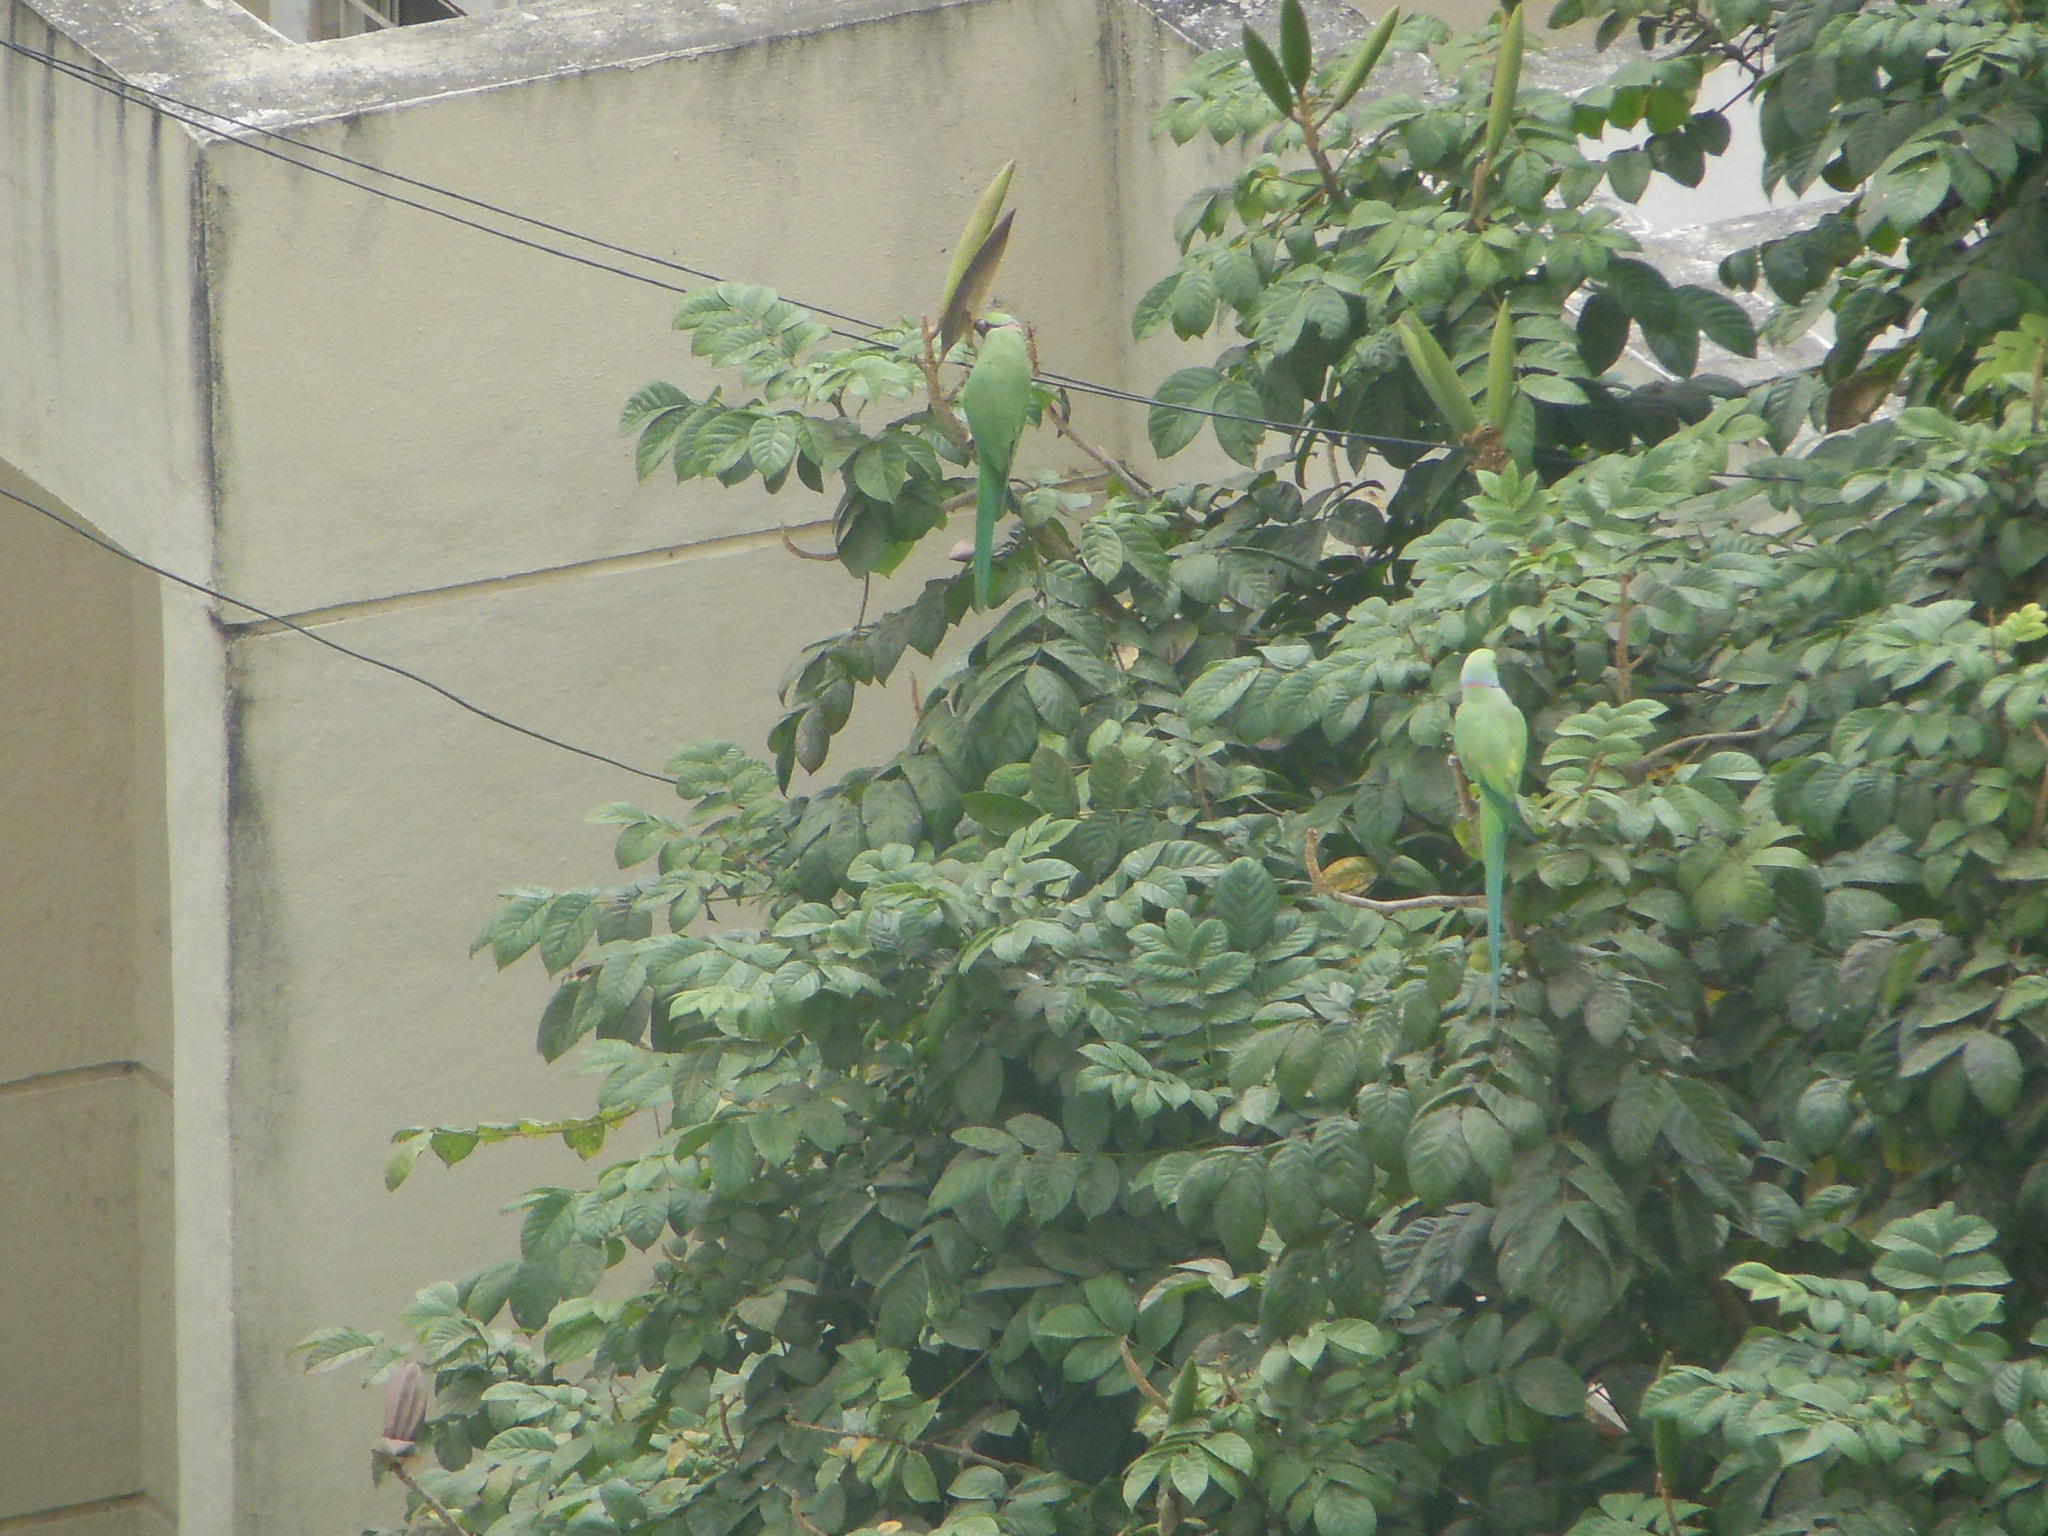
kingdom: Animalia
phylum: Chordata
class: Aves
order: Psittaciformes
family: Psittacidae
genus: Psittacula
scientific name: Psittacula krameri
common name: Rose-ringed parakeet
